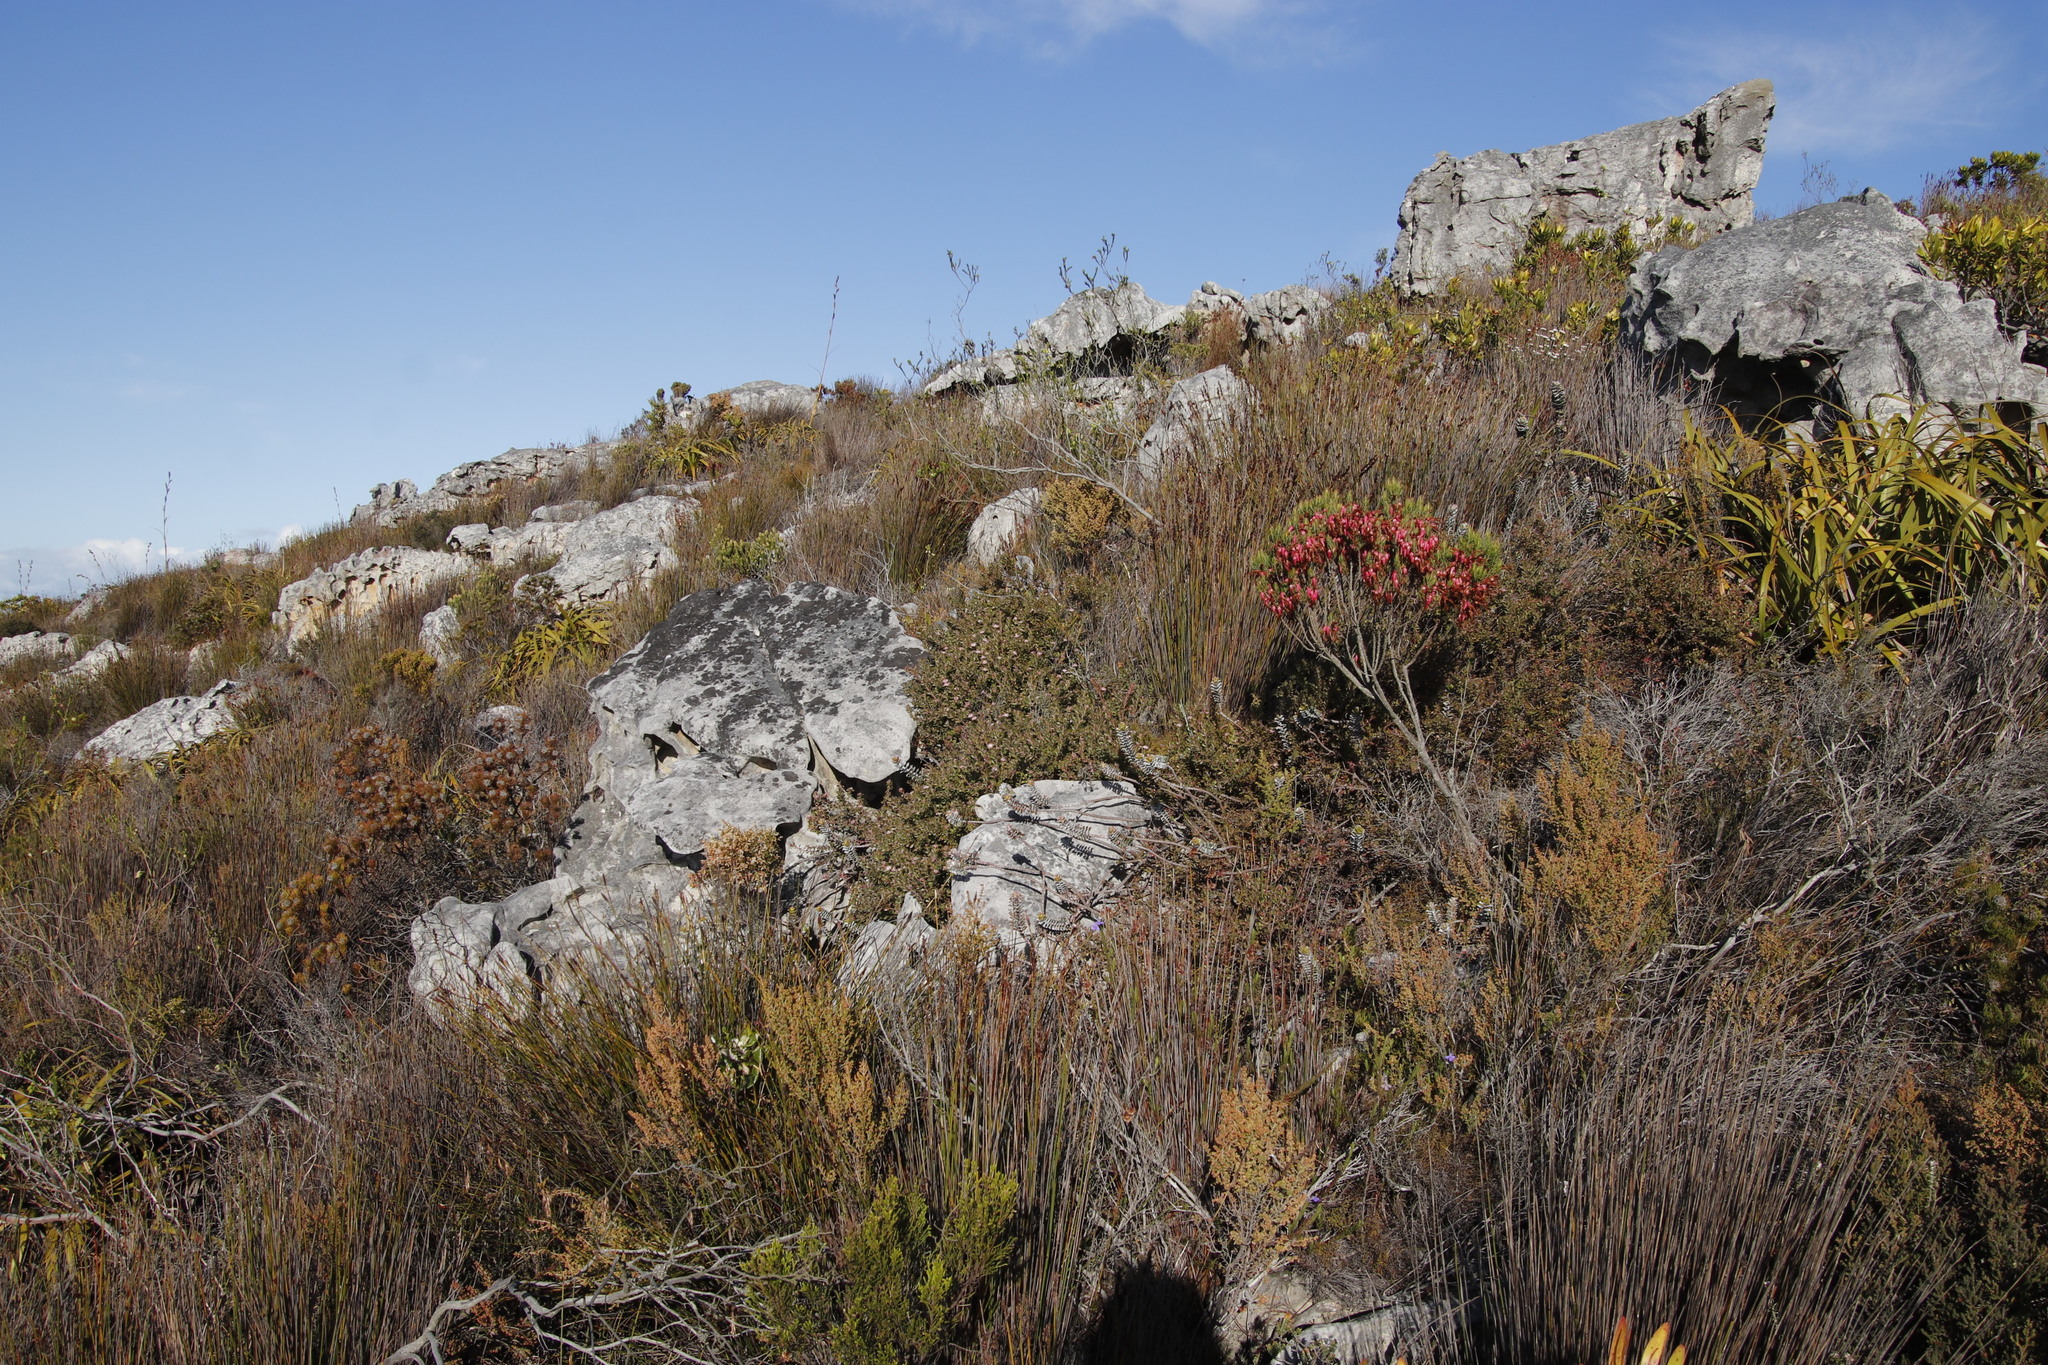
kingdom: Plantae
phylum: Tracheophyta
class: Magnoliopsida
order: Proteales
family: Proteaceae
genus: Diastella
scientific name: Diastella divaricata
